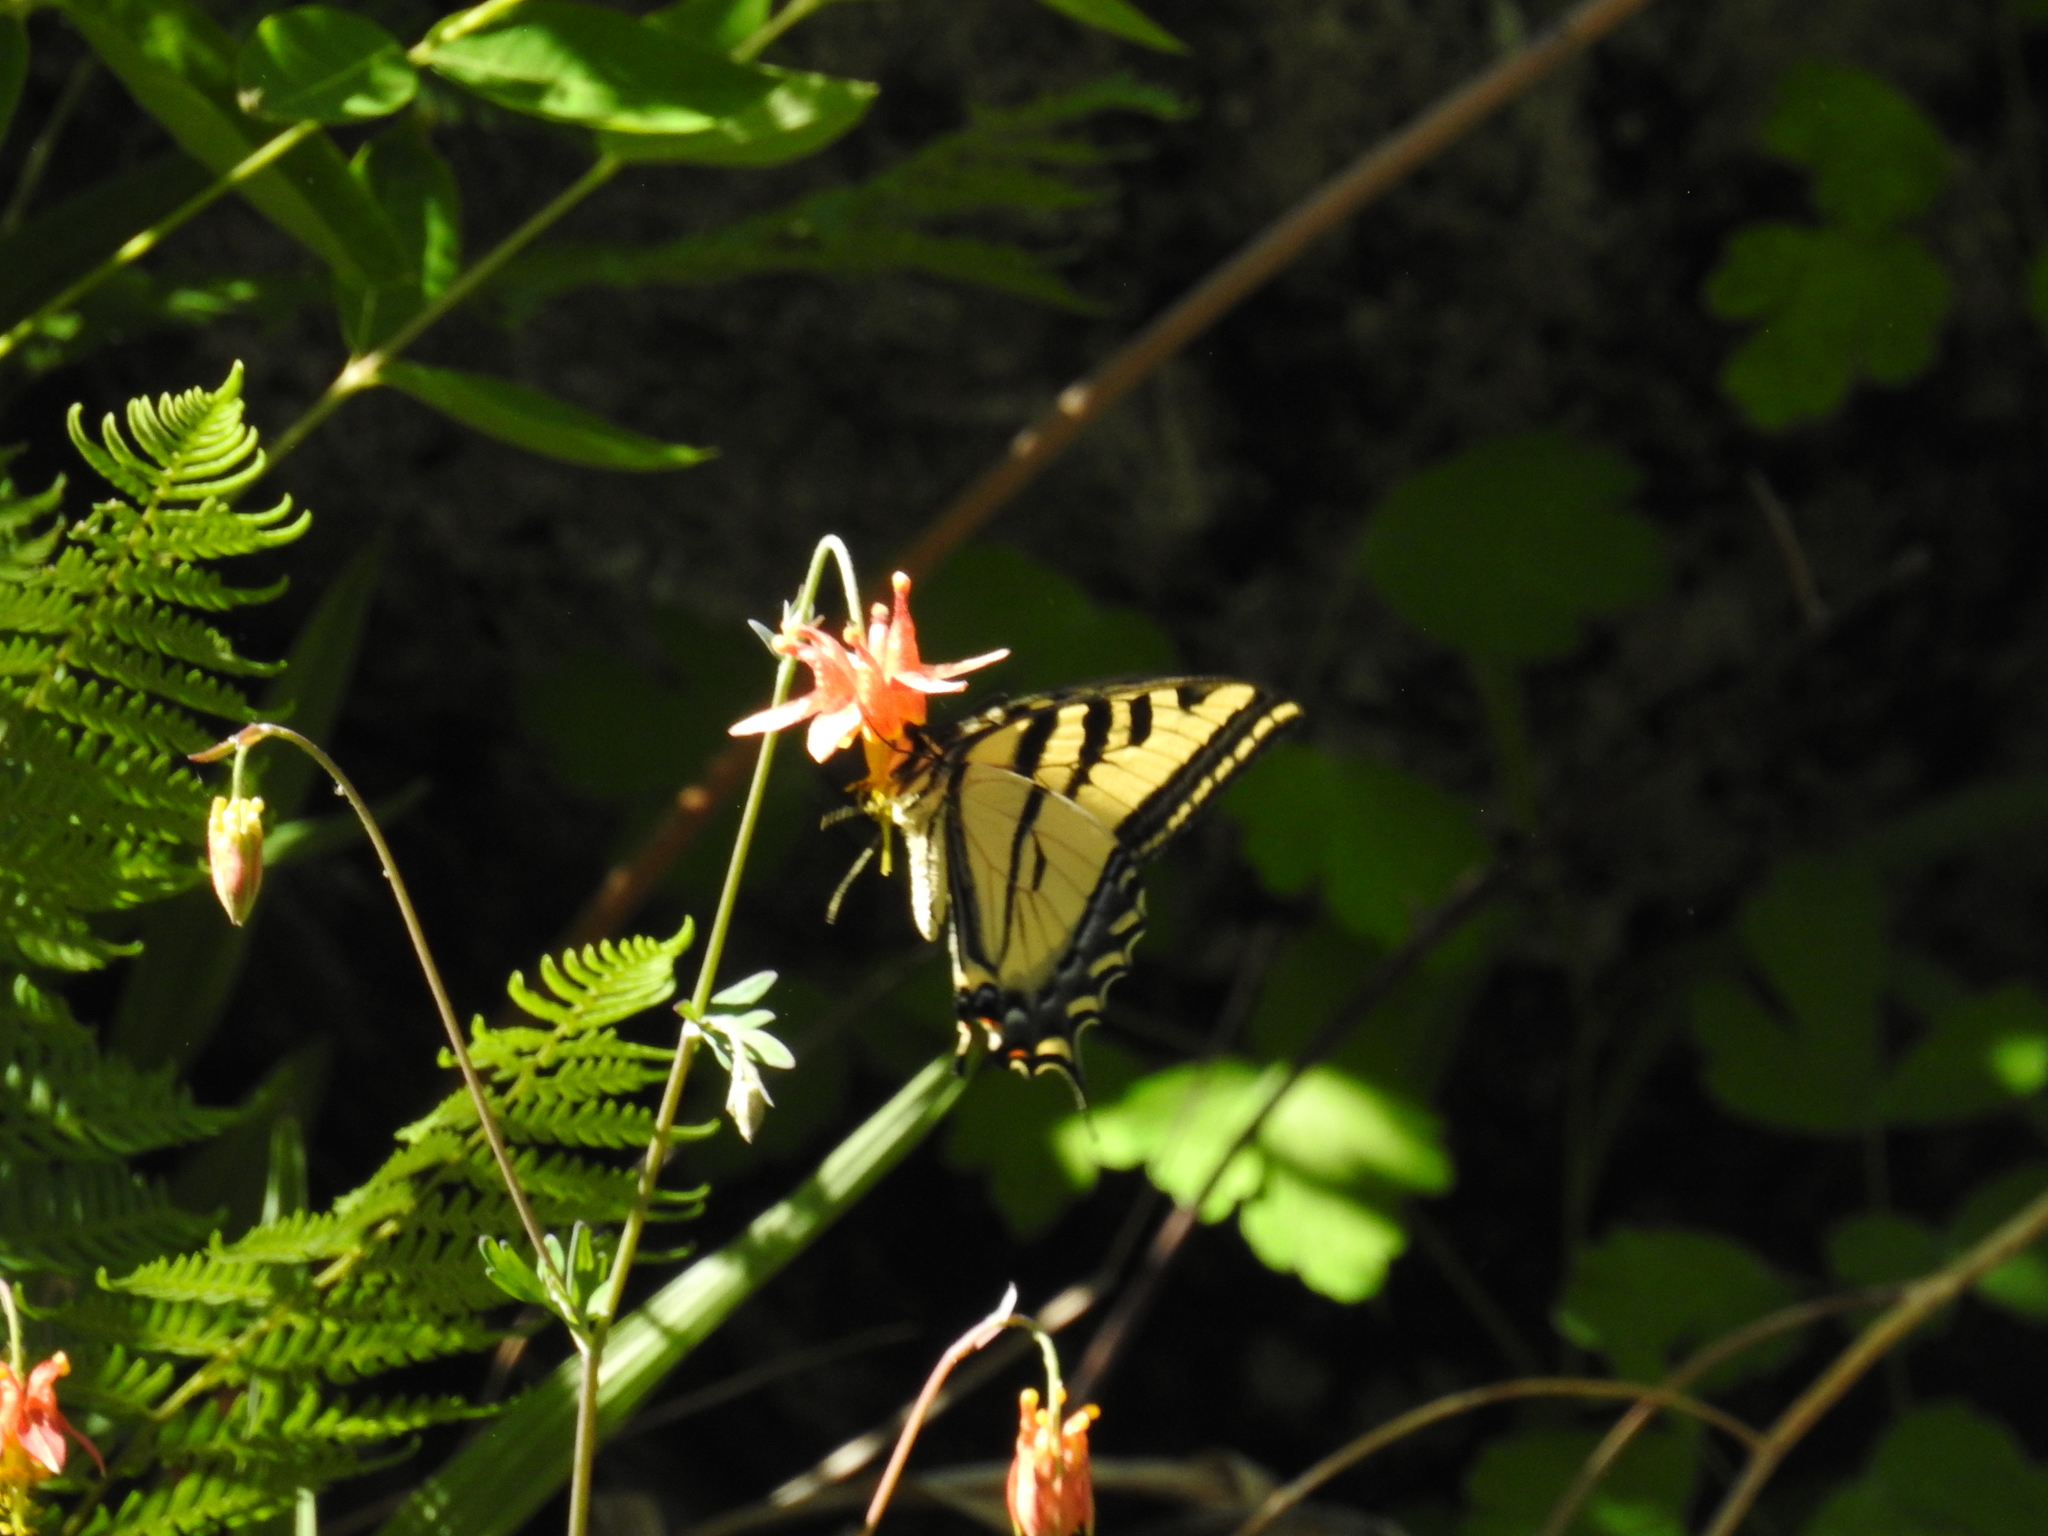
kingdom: Animalia
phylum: Arthropoda
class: Insecta
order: Lepidoptera
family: Papilionidae
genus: Papilio
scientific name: Papilio rutulus
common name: Western tiger swallowtail
